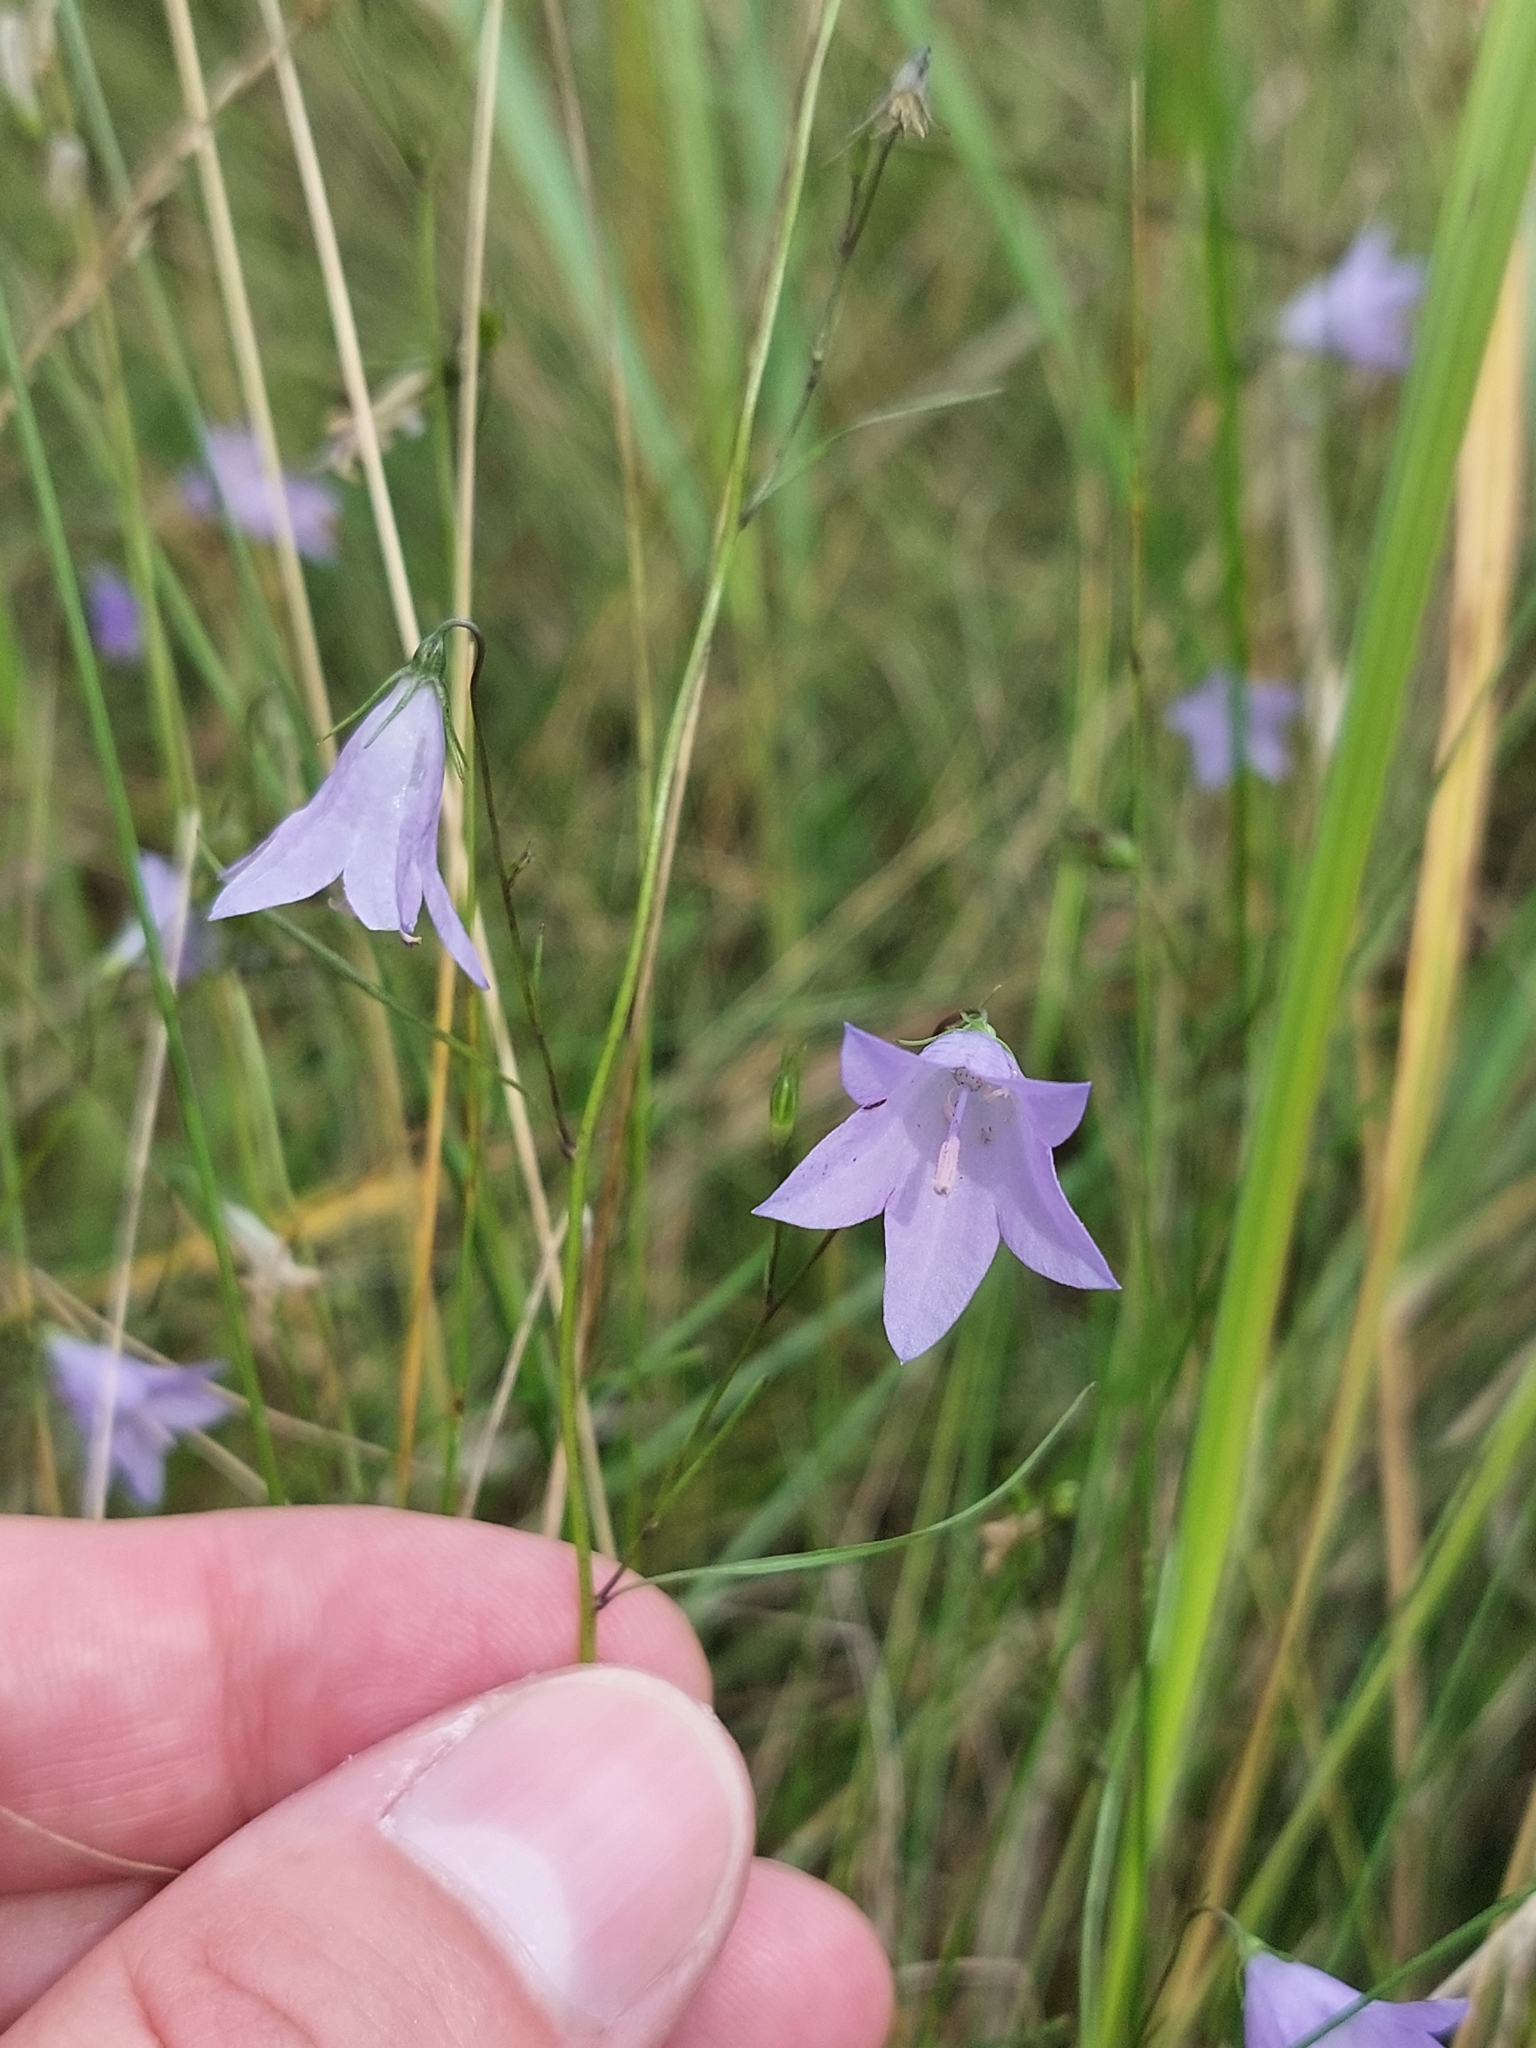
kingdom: Plantae
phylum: Tracheophyta
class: Magnoliopsida
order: Asterales
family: Campanulaceae
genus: Campanula
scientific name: Campanula rotundifolia
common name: Harebell
